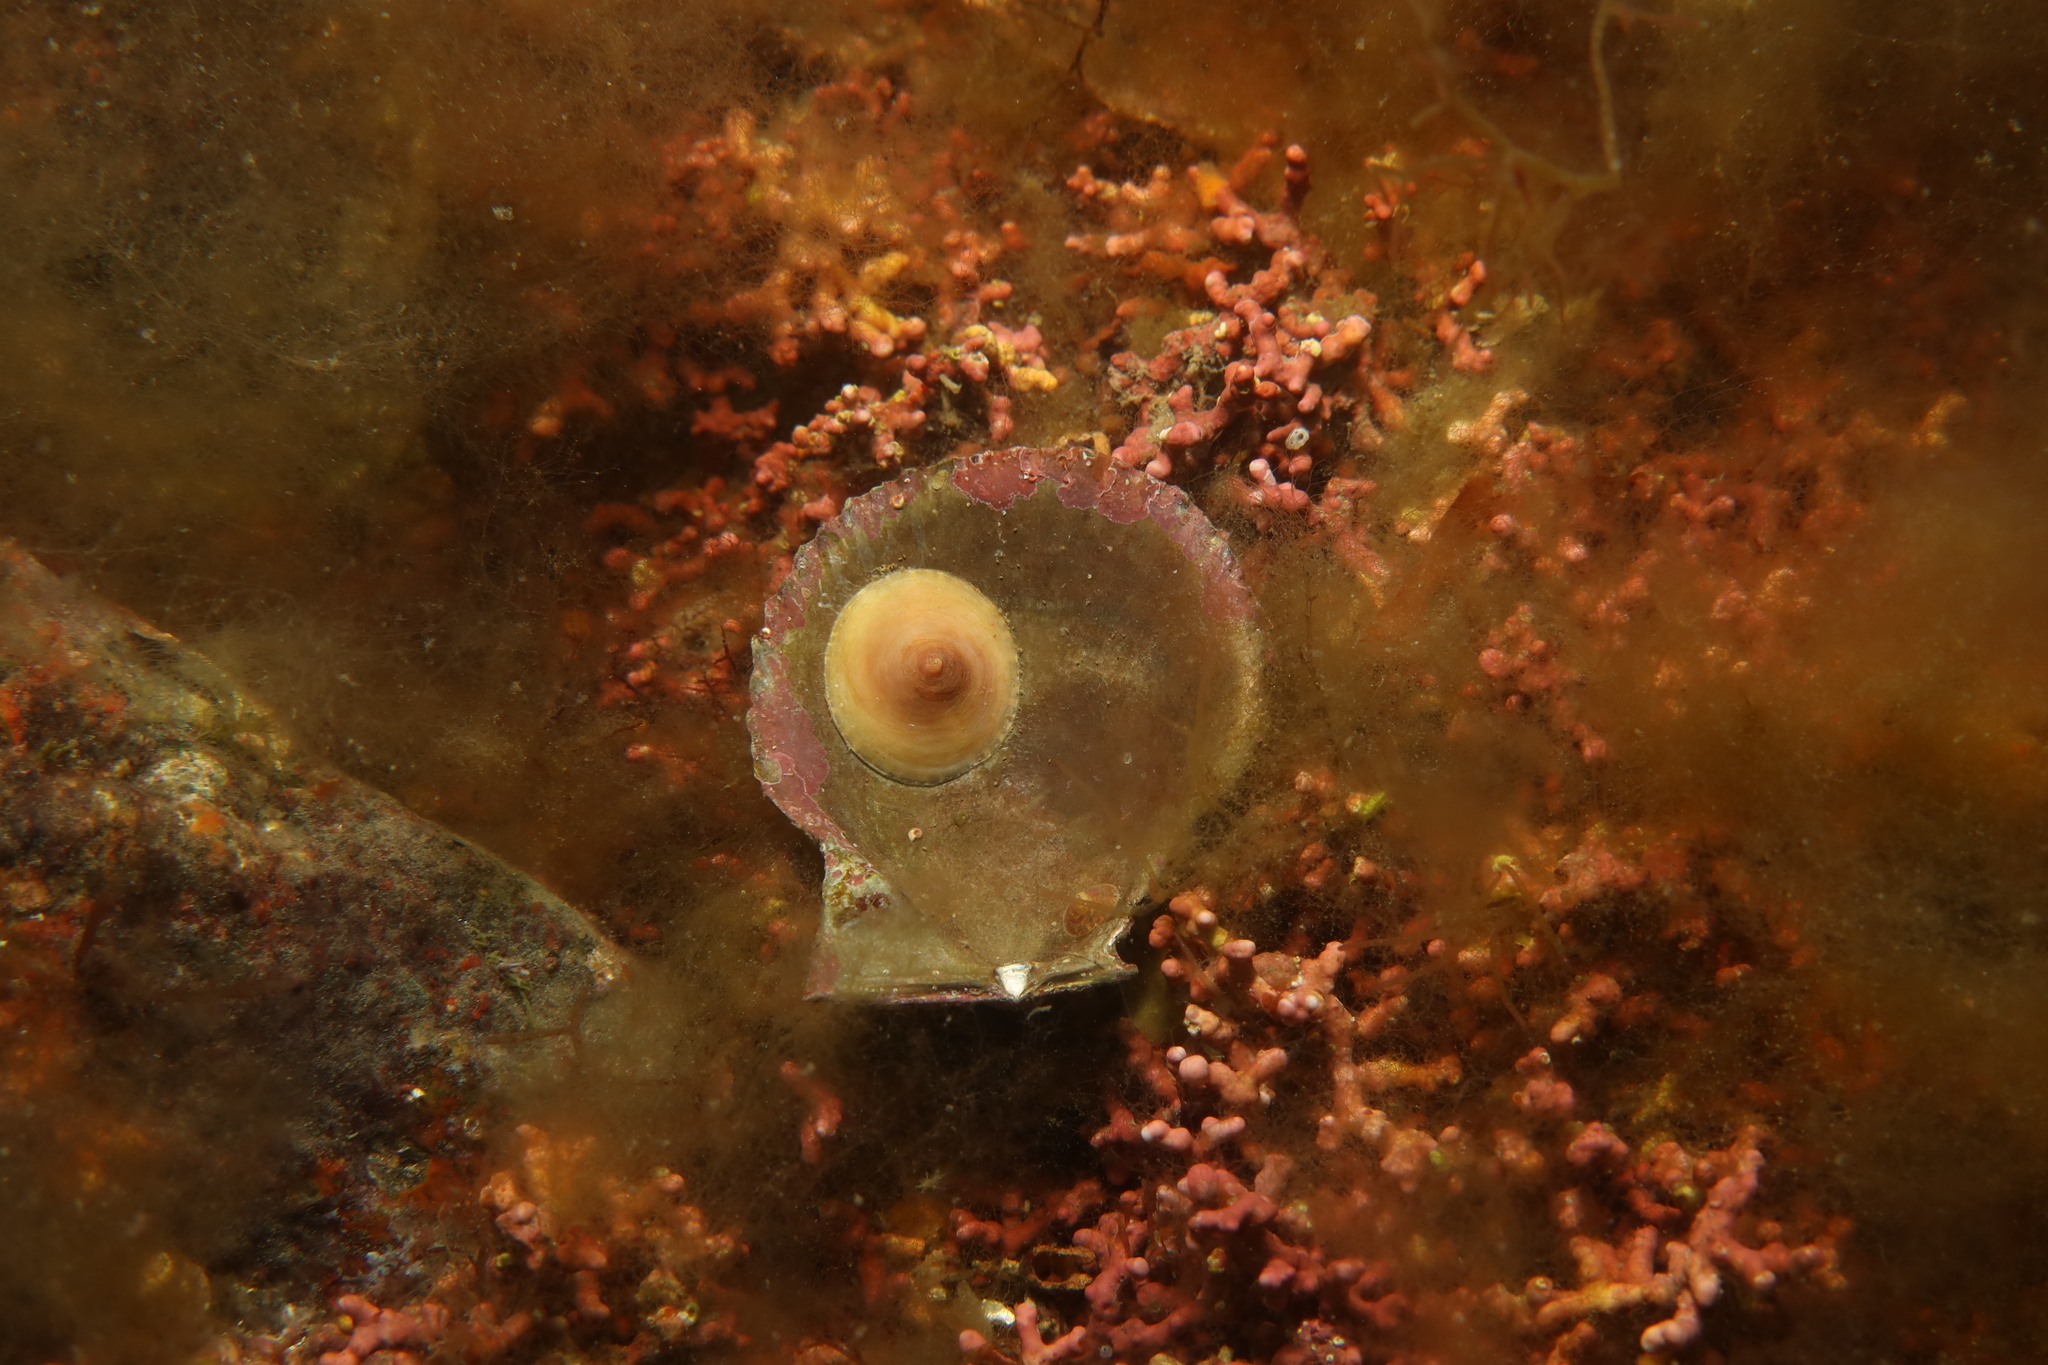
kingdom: Animalia
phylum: Mollusca
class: Gastropoda
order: Littorinimorpha
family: Calyptraeidae
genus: Calyptraea
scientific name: Calyptraea chinensis
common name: Chinaman's hat
